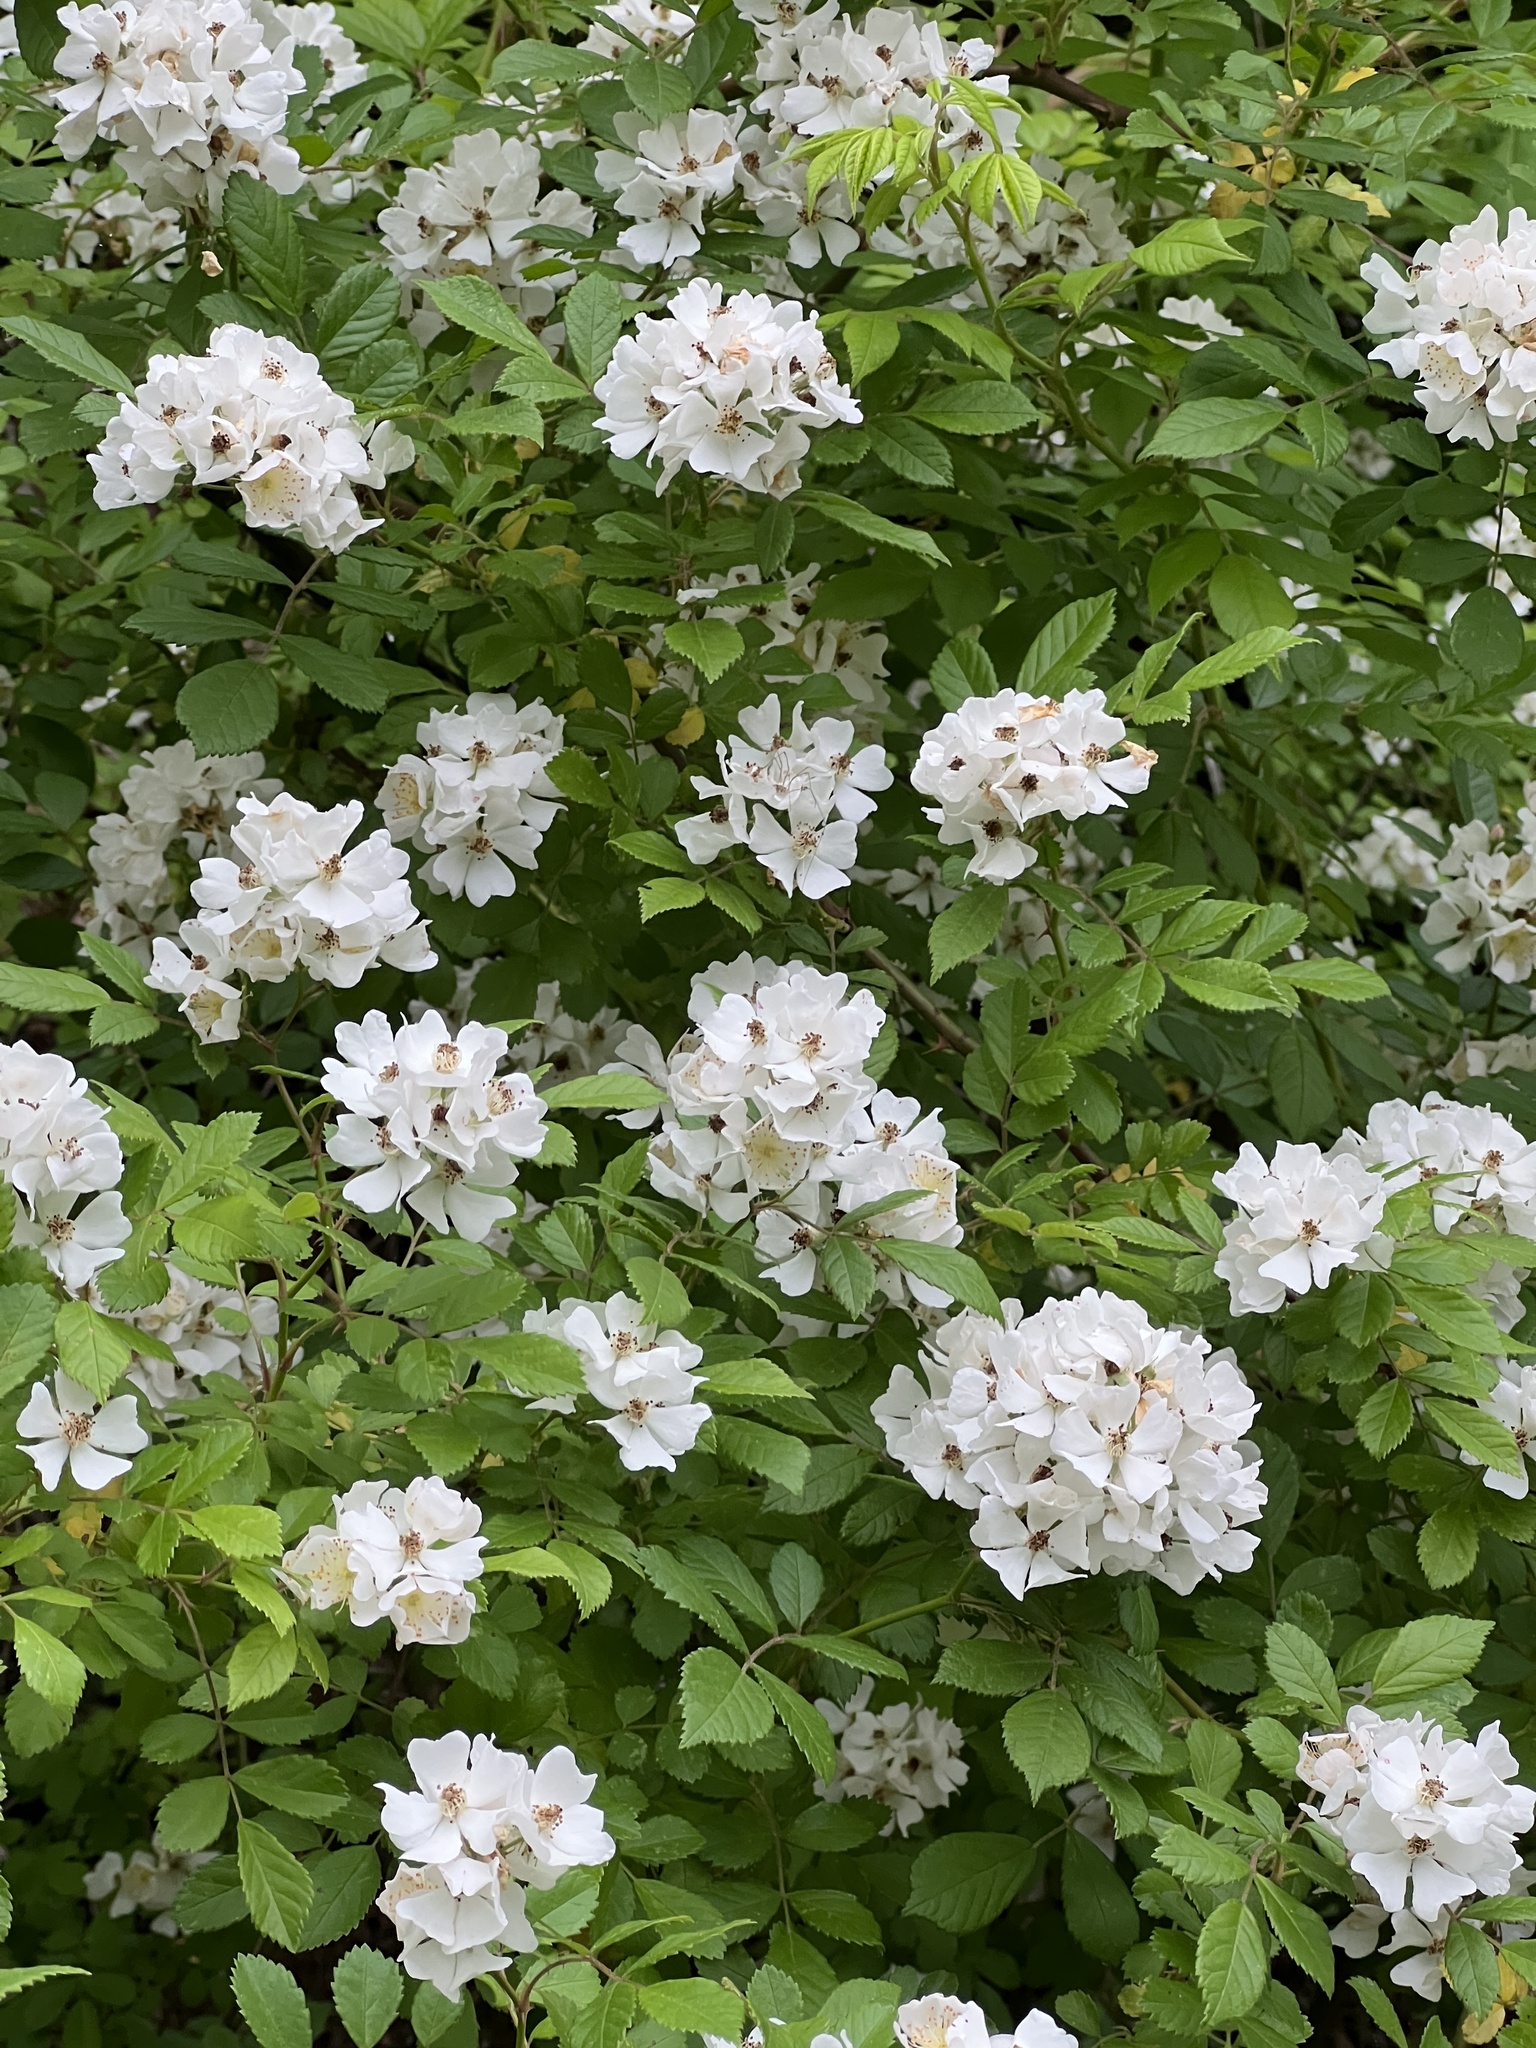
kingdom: Plantae
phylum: Tracheophyta
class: Magnoliopsida
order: Rosales
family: Rosaceae
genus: Rosa
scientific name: Rosa multiflora
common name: Multiflora rose
